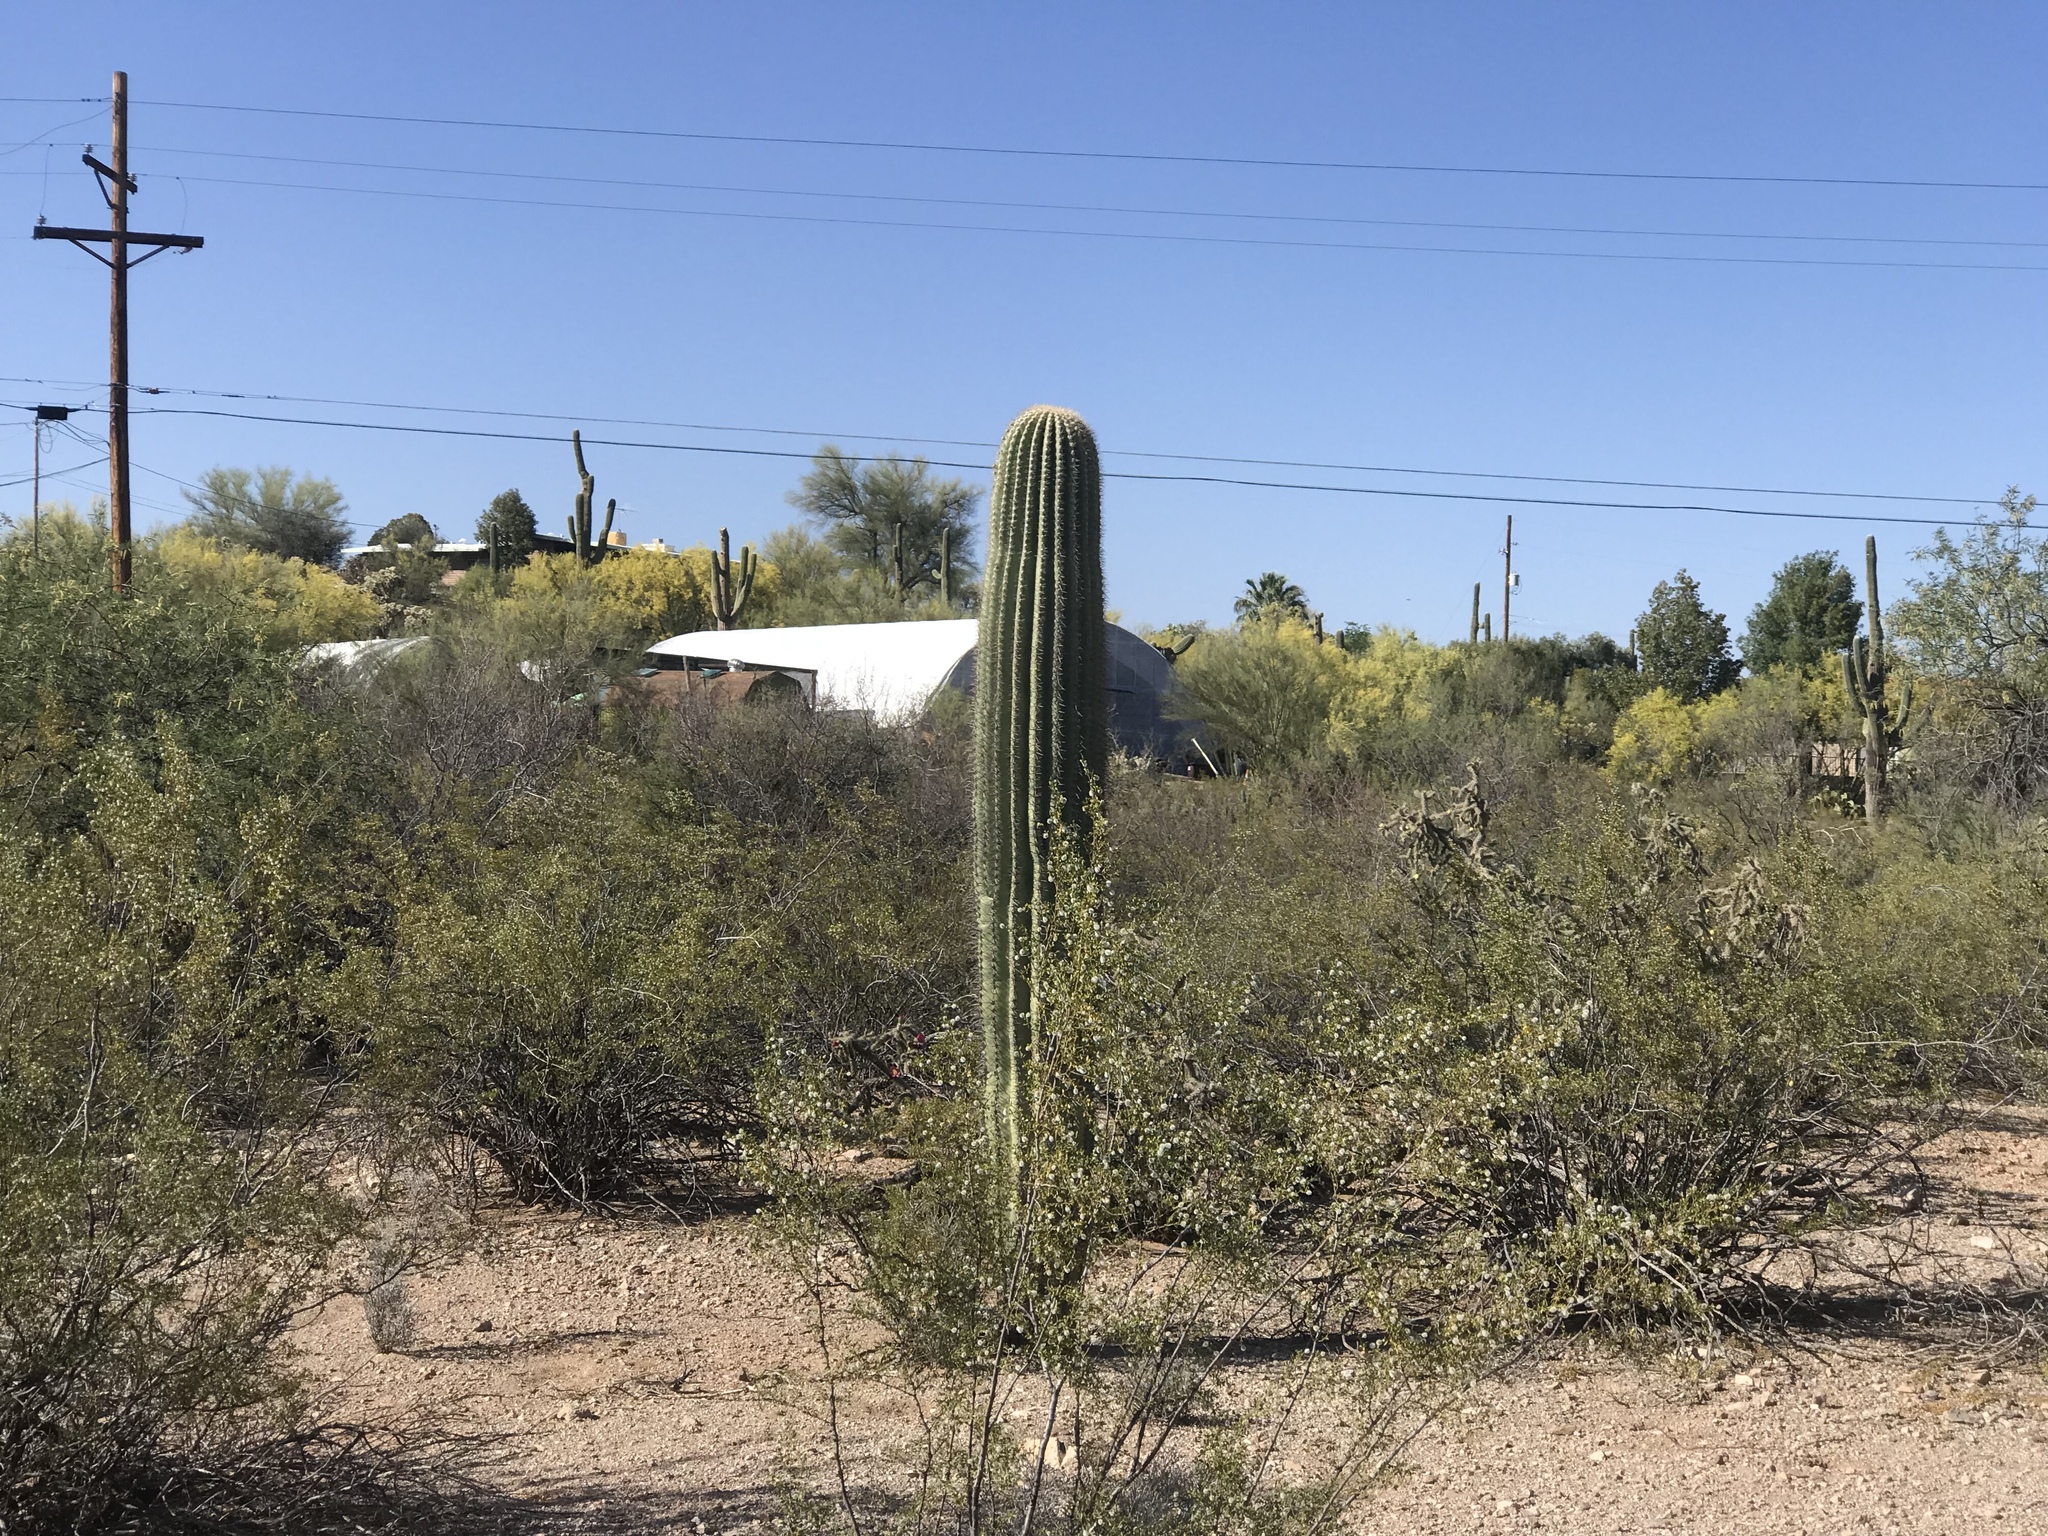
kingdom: Plantae
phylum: Tracheophyta
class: Magnoliopsida
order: Zygophyllales
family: Zygophyllaceae
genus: Larrea
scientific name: Larrea tridentata
